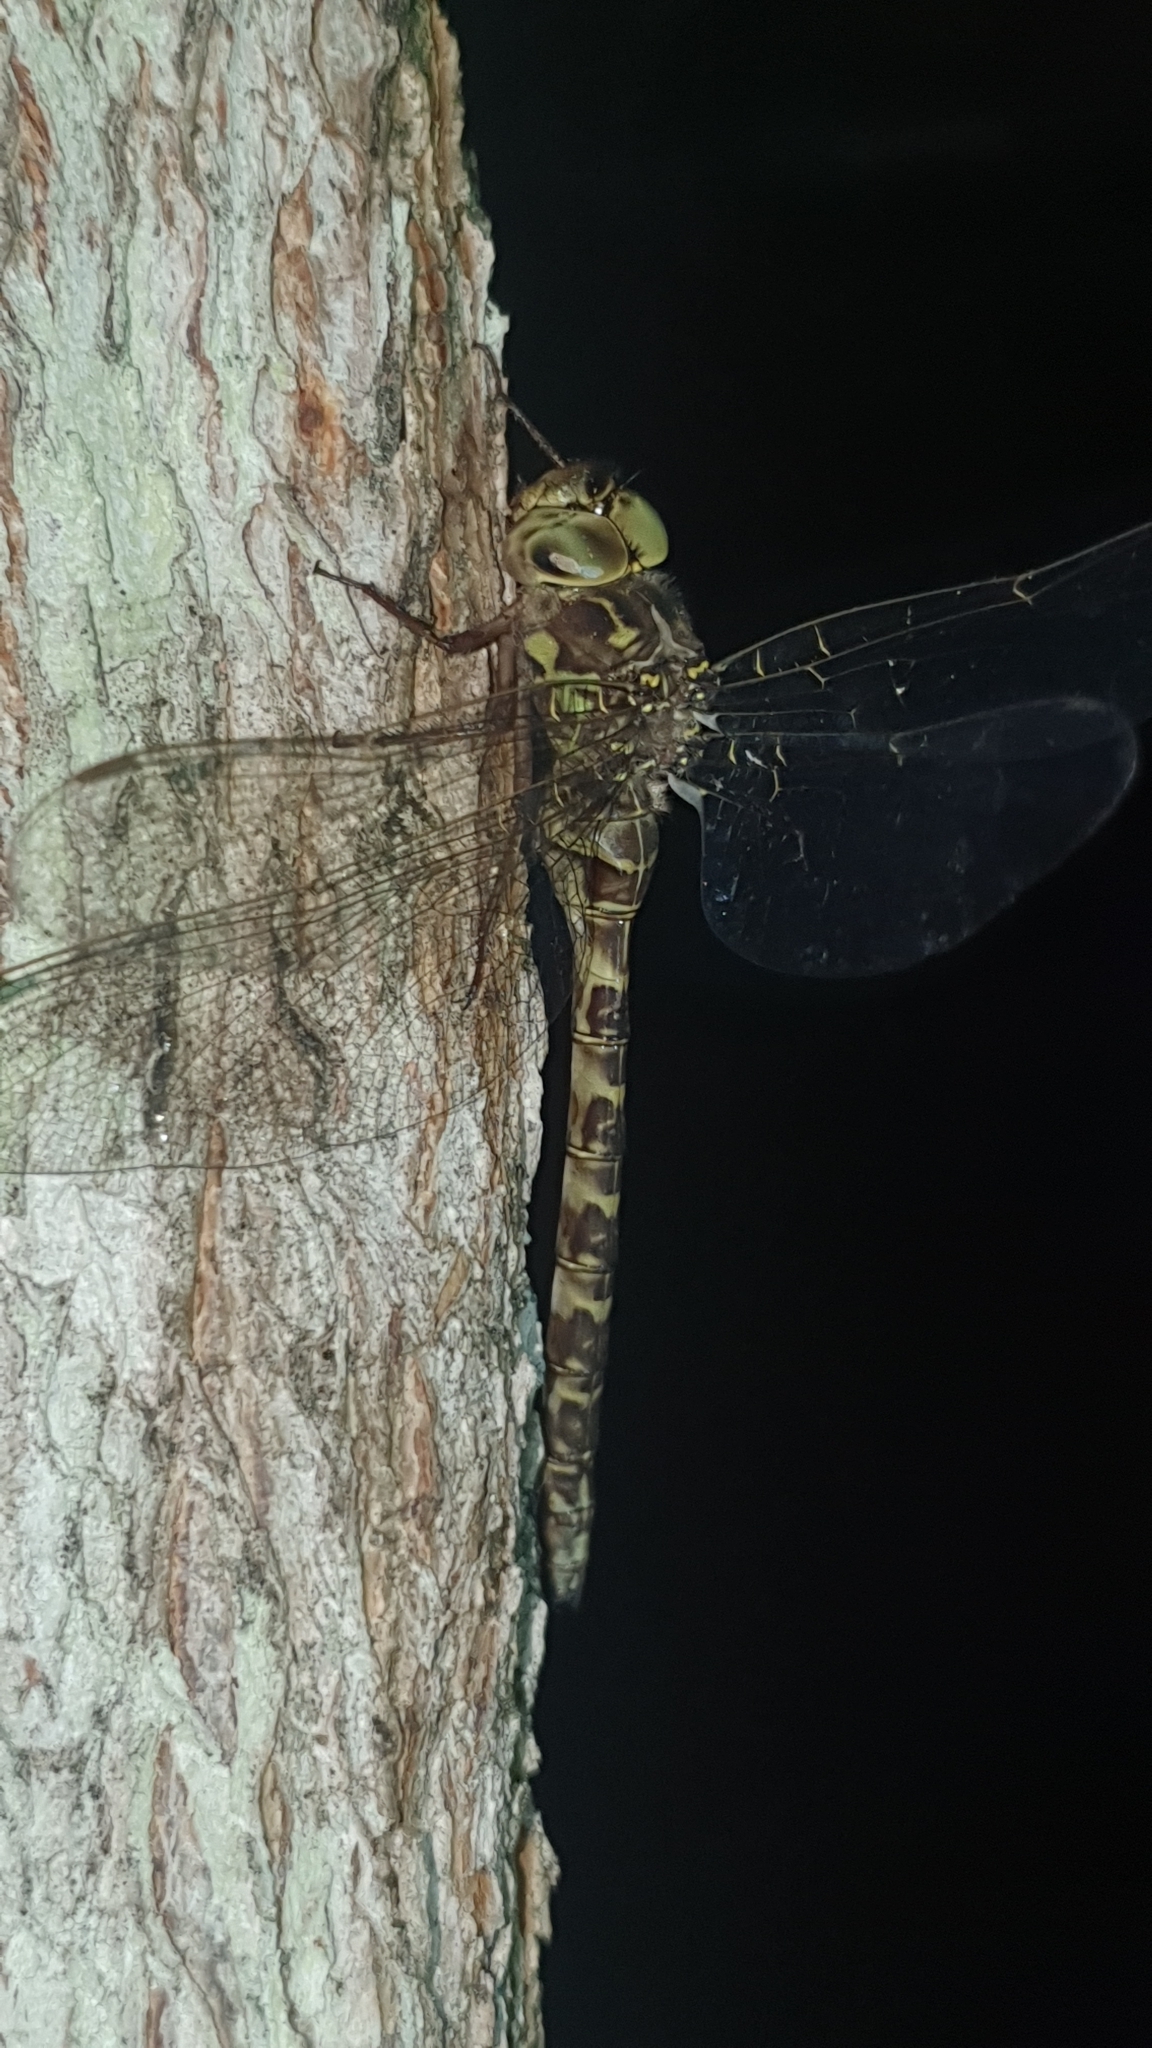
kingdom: Animalia
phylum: Arthropoda
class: Insecta
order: Odonata
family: Aeshnidae
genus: Boyeria
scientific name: Boyeria irene
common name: Western spectre
